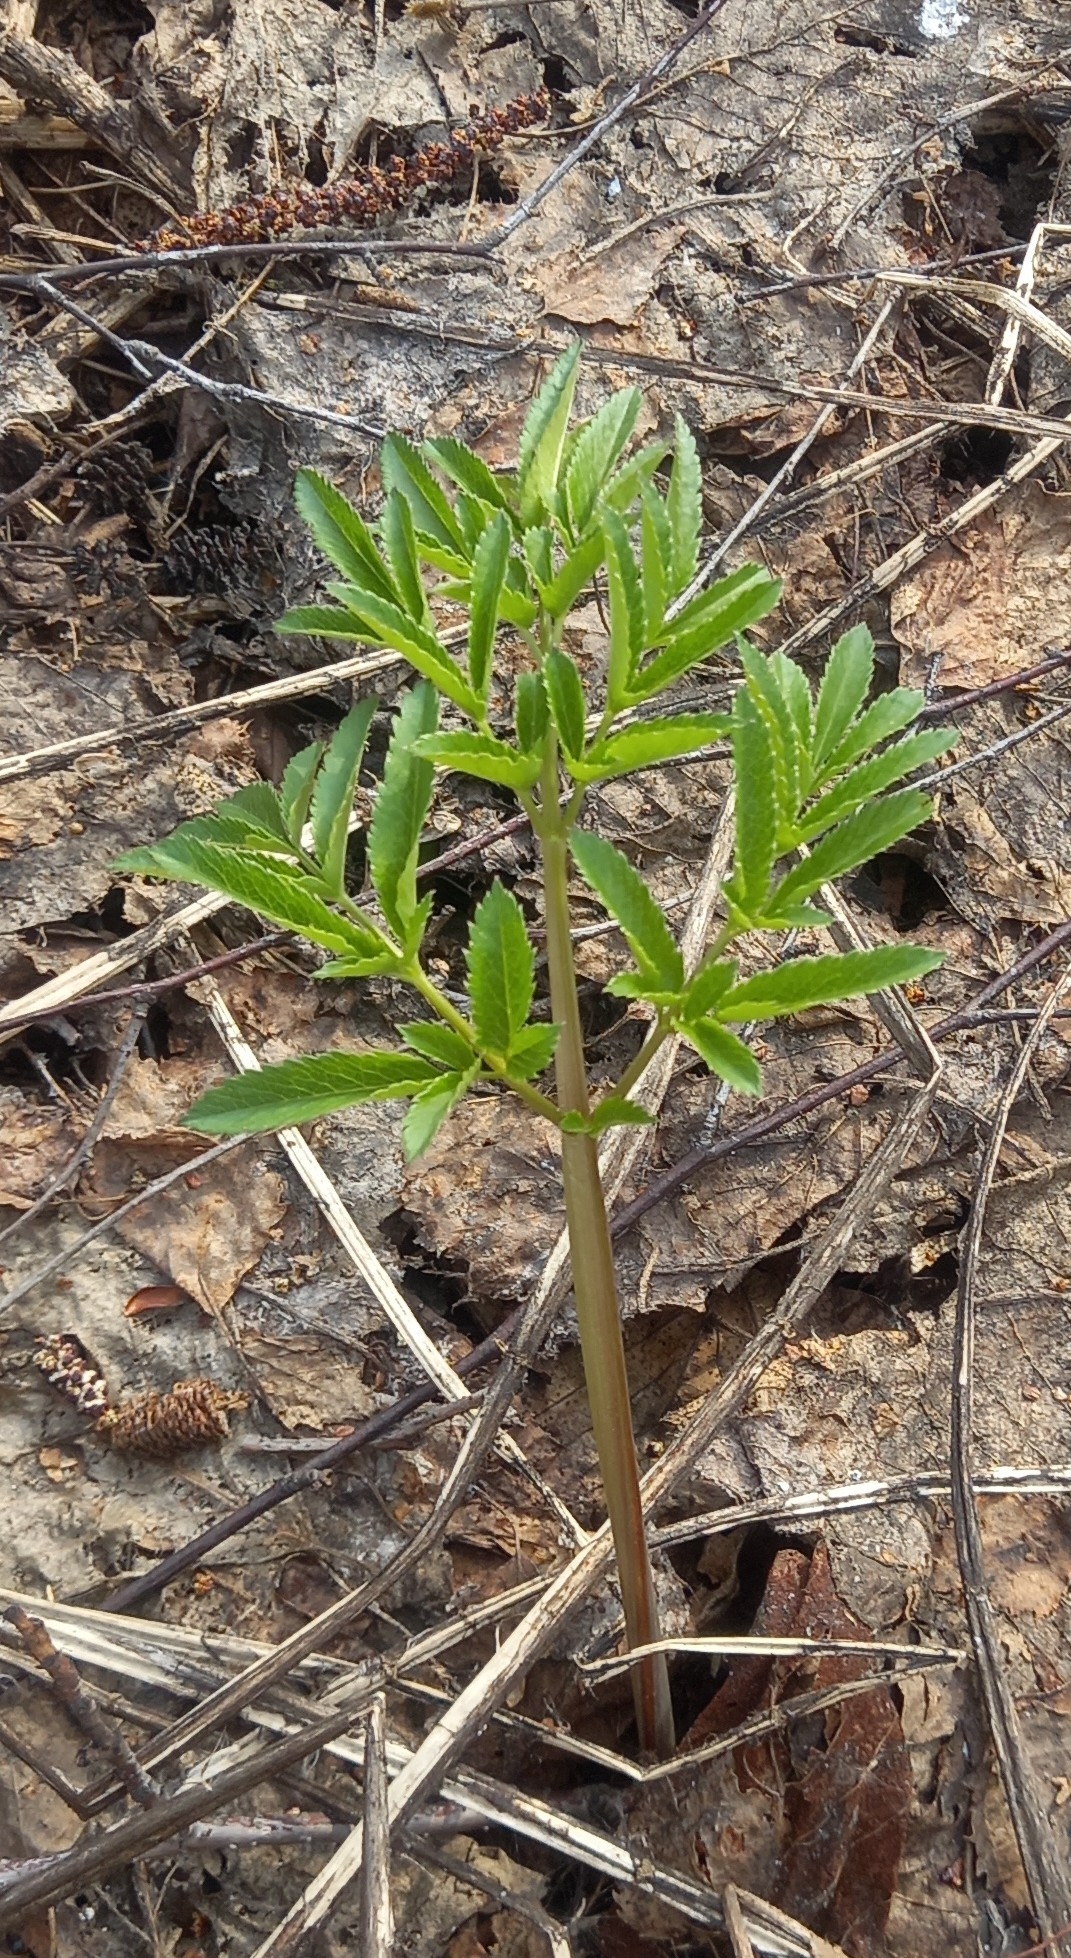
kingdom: Plantae
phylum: Tracheophyta
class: Magnoliopsida
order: Apiales
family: Apiaceae
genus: Angelica
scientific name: Angelica sylvestris
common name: Wild angelica
